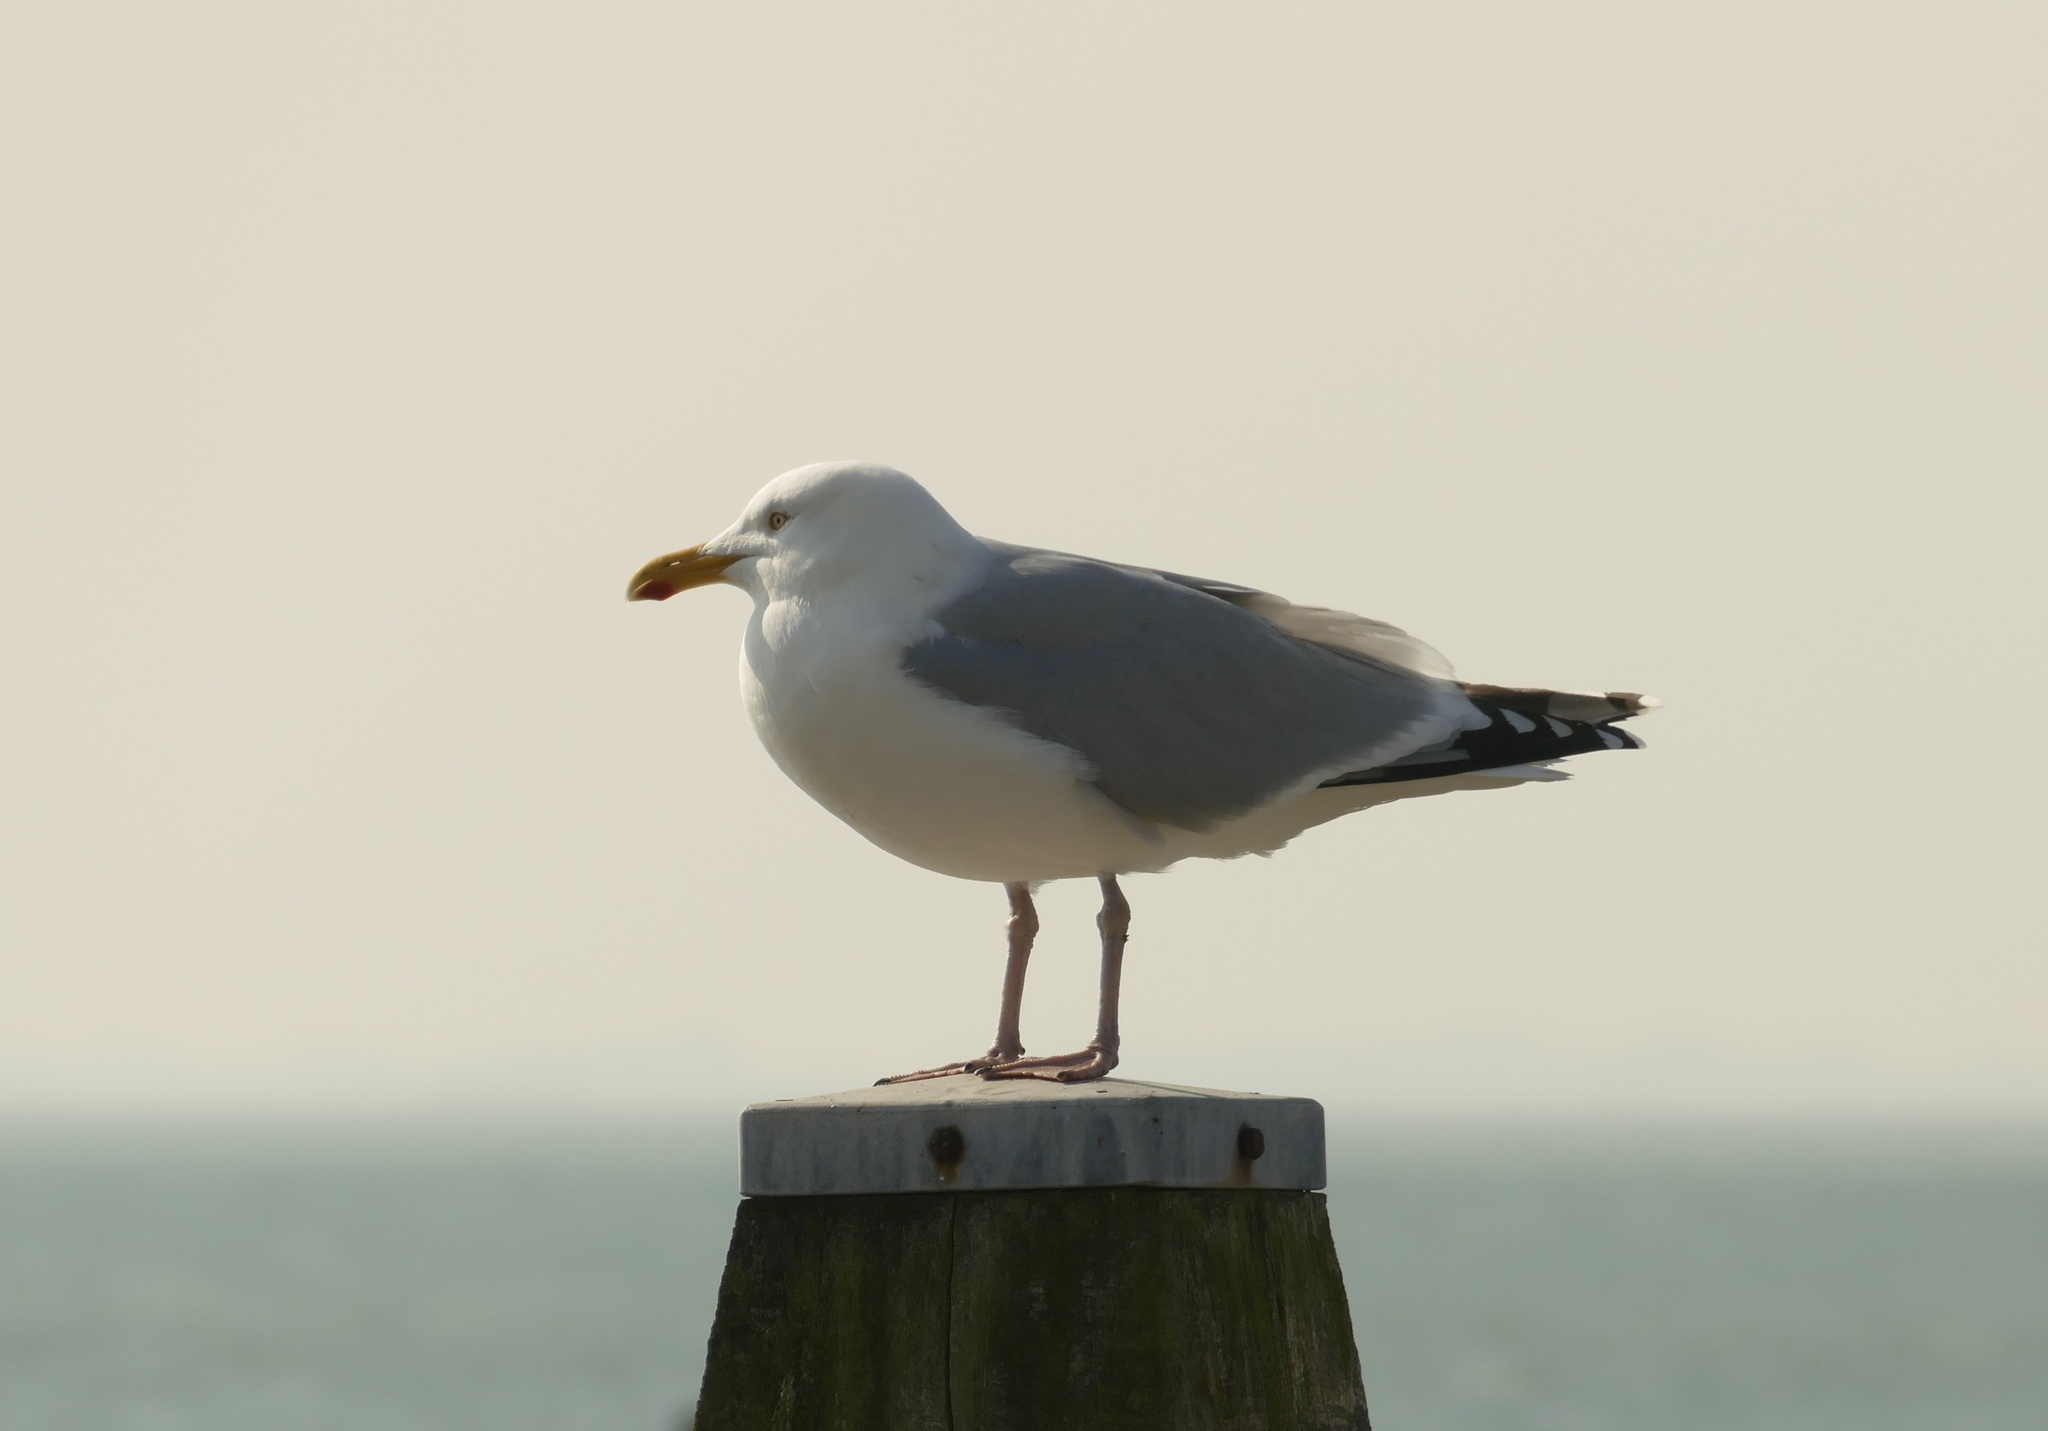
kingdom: Animalia
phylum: Chordata
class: Aves
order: Charadriiformes
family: Laridae
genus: Larus
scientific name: Larus argentatus
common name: Herring gull
